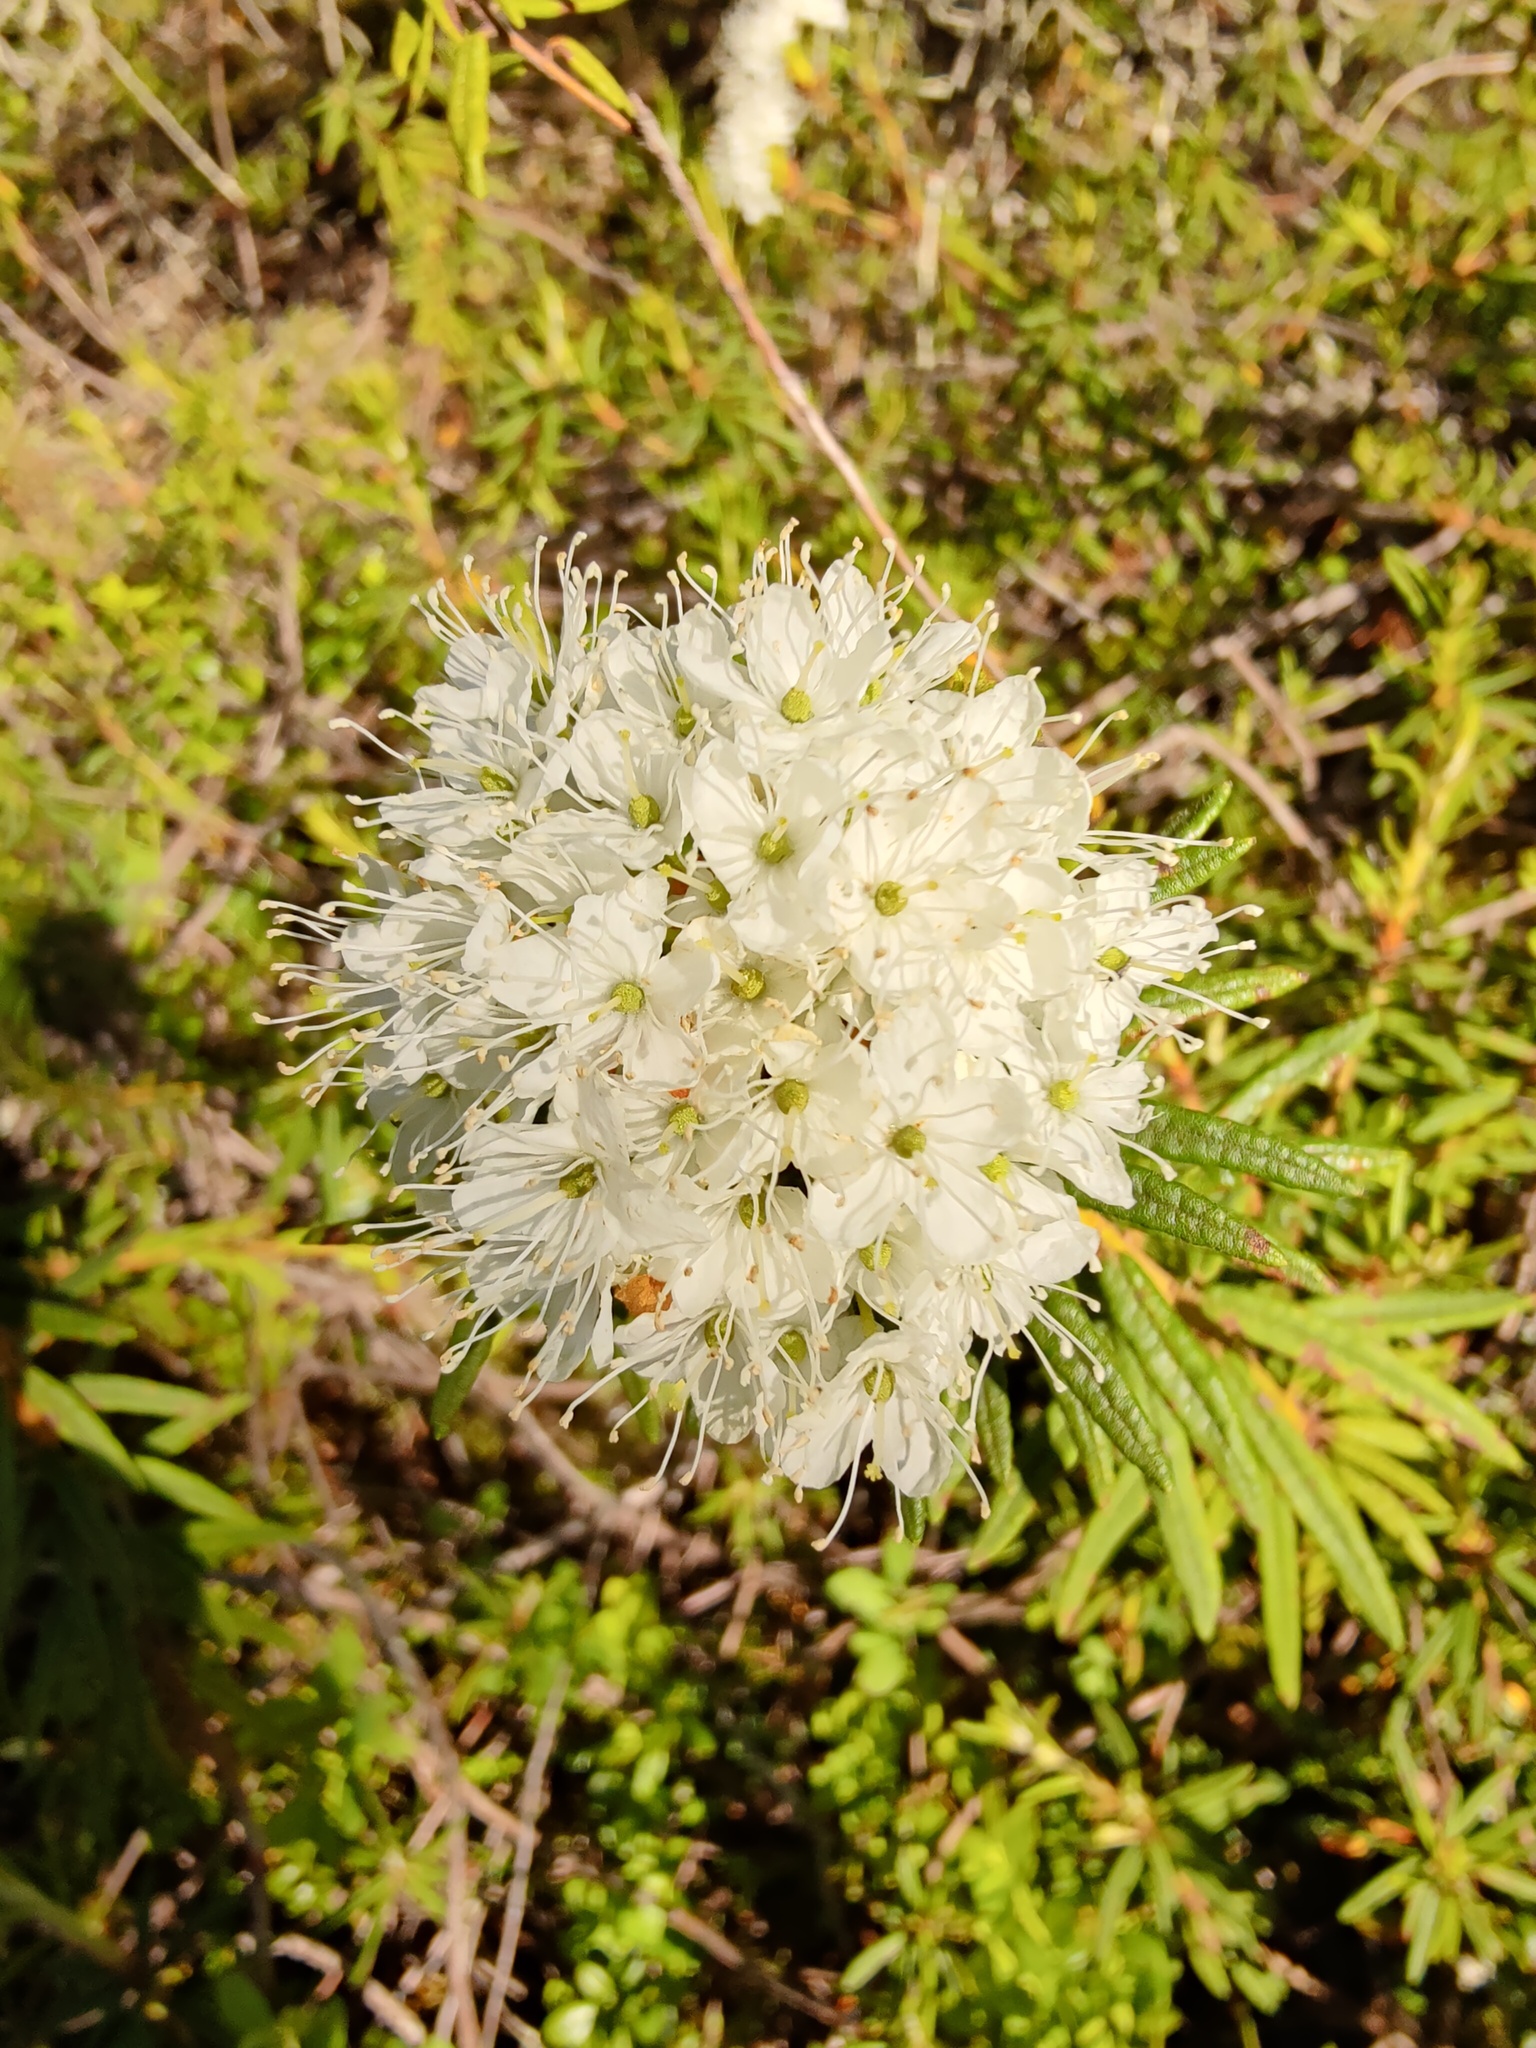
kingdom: Plantae
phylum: Tracheophyta
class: Magnoliopsida
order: Ericales
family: Ericaceae
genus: Rhododendron
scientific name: Rhododendron tomentosum
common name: Marsh labrador tea
